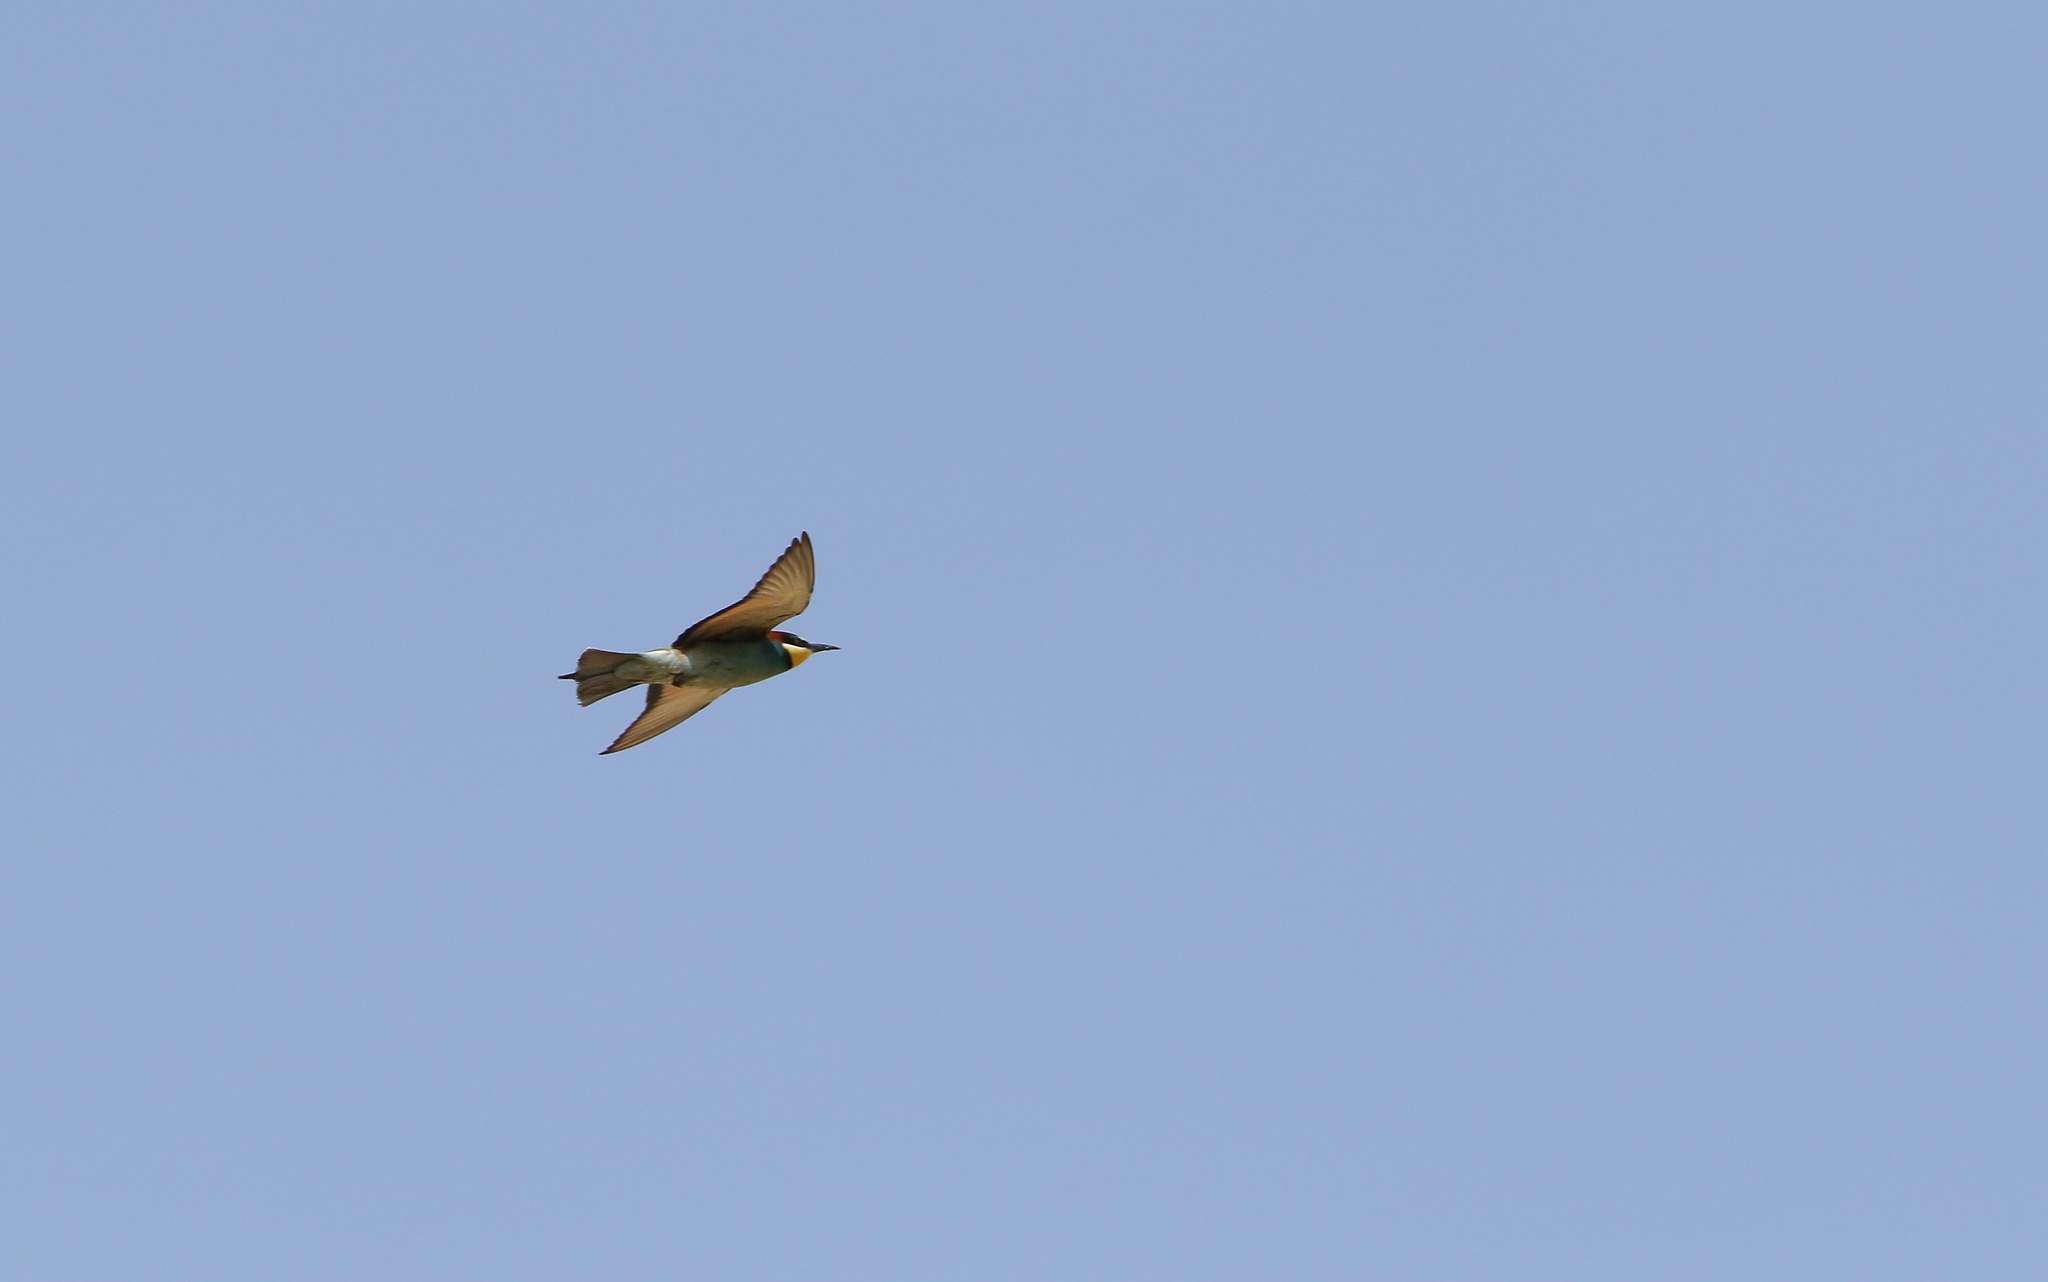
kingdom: Animalia
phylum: Chordata
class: Aves
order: Coraciiformes
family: Meropidae
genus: Merops
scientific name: Merops apiaster
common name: European bee-eater
